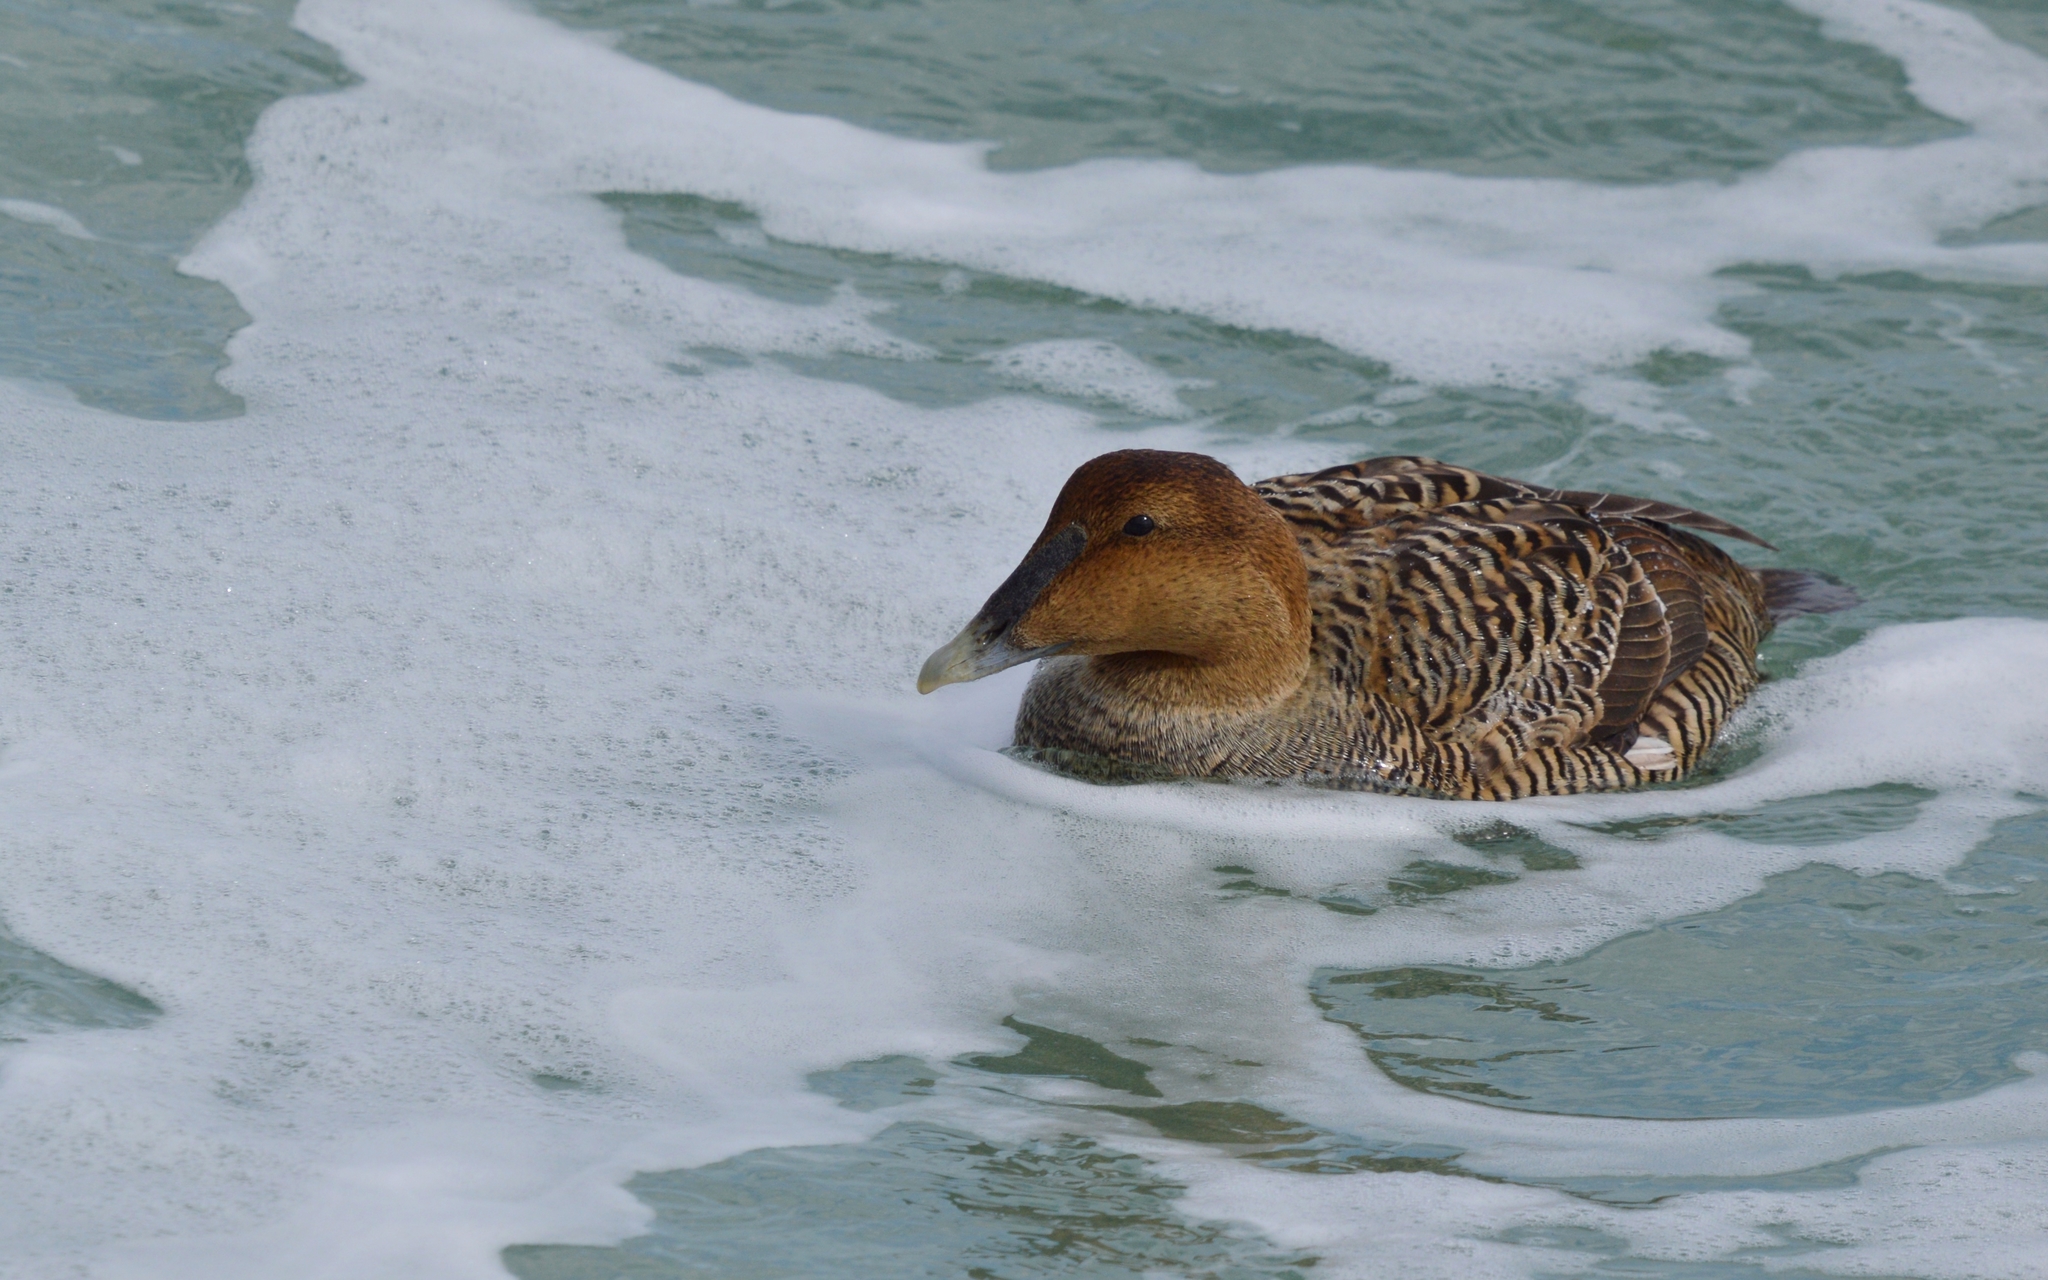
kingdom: Animalia
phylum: Chordata
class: Aves
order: Anseriformes
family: Anatidae
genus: Somateria
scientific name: Somateria mollissima
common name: Common eider
